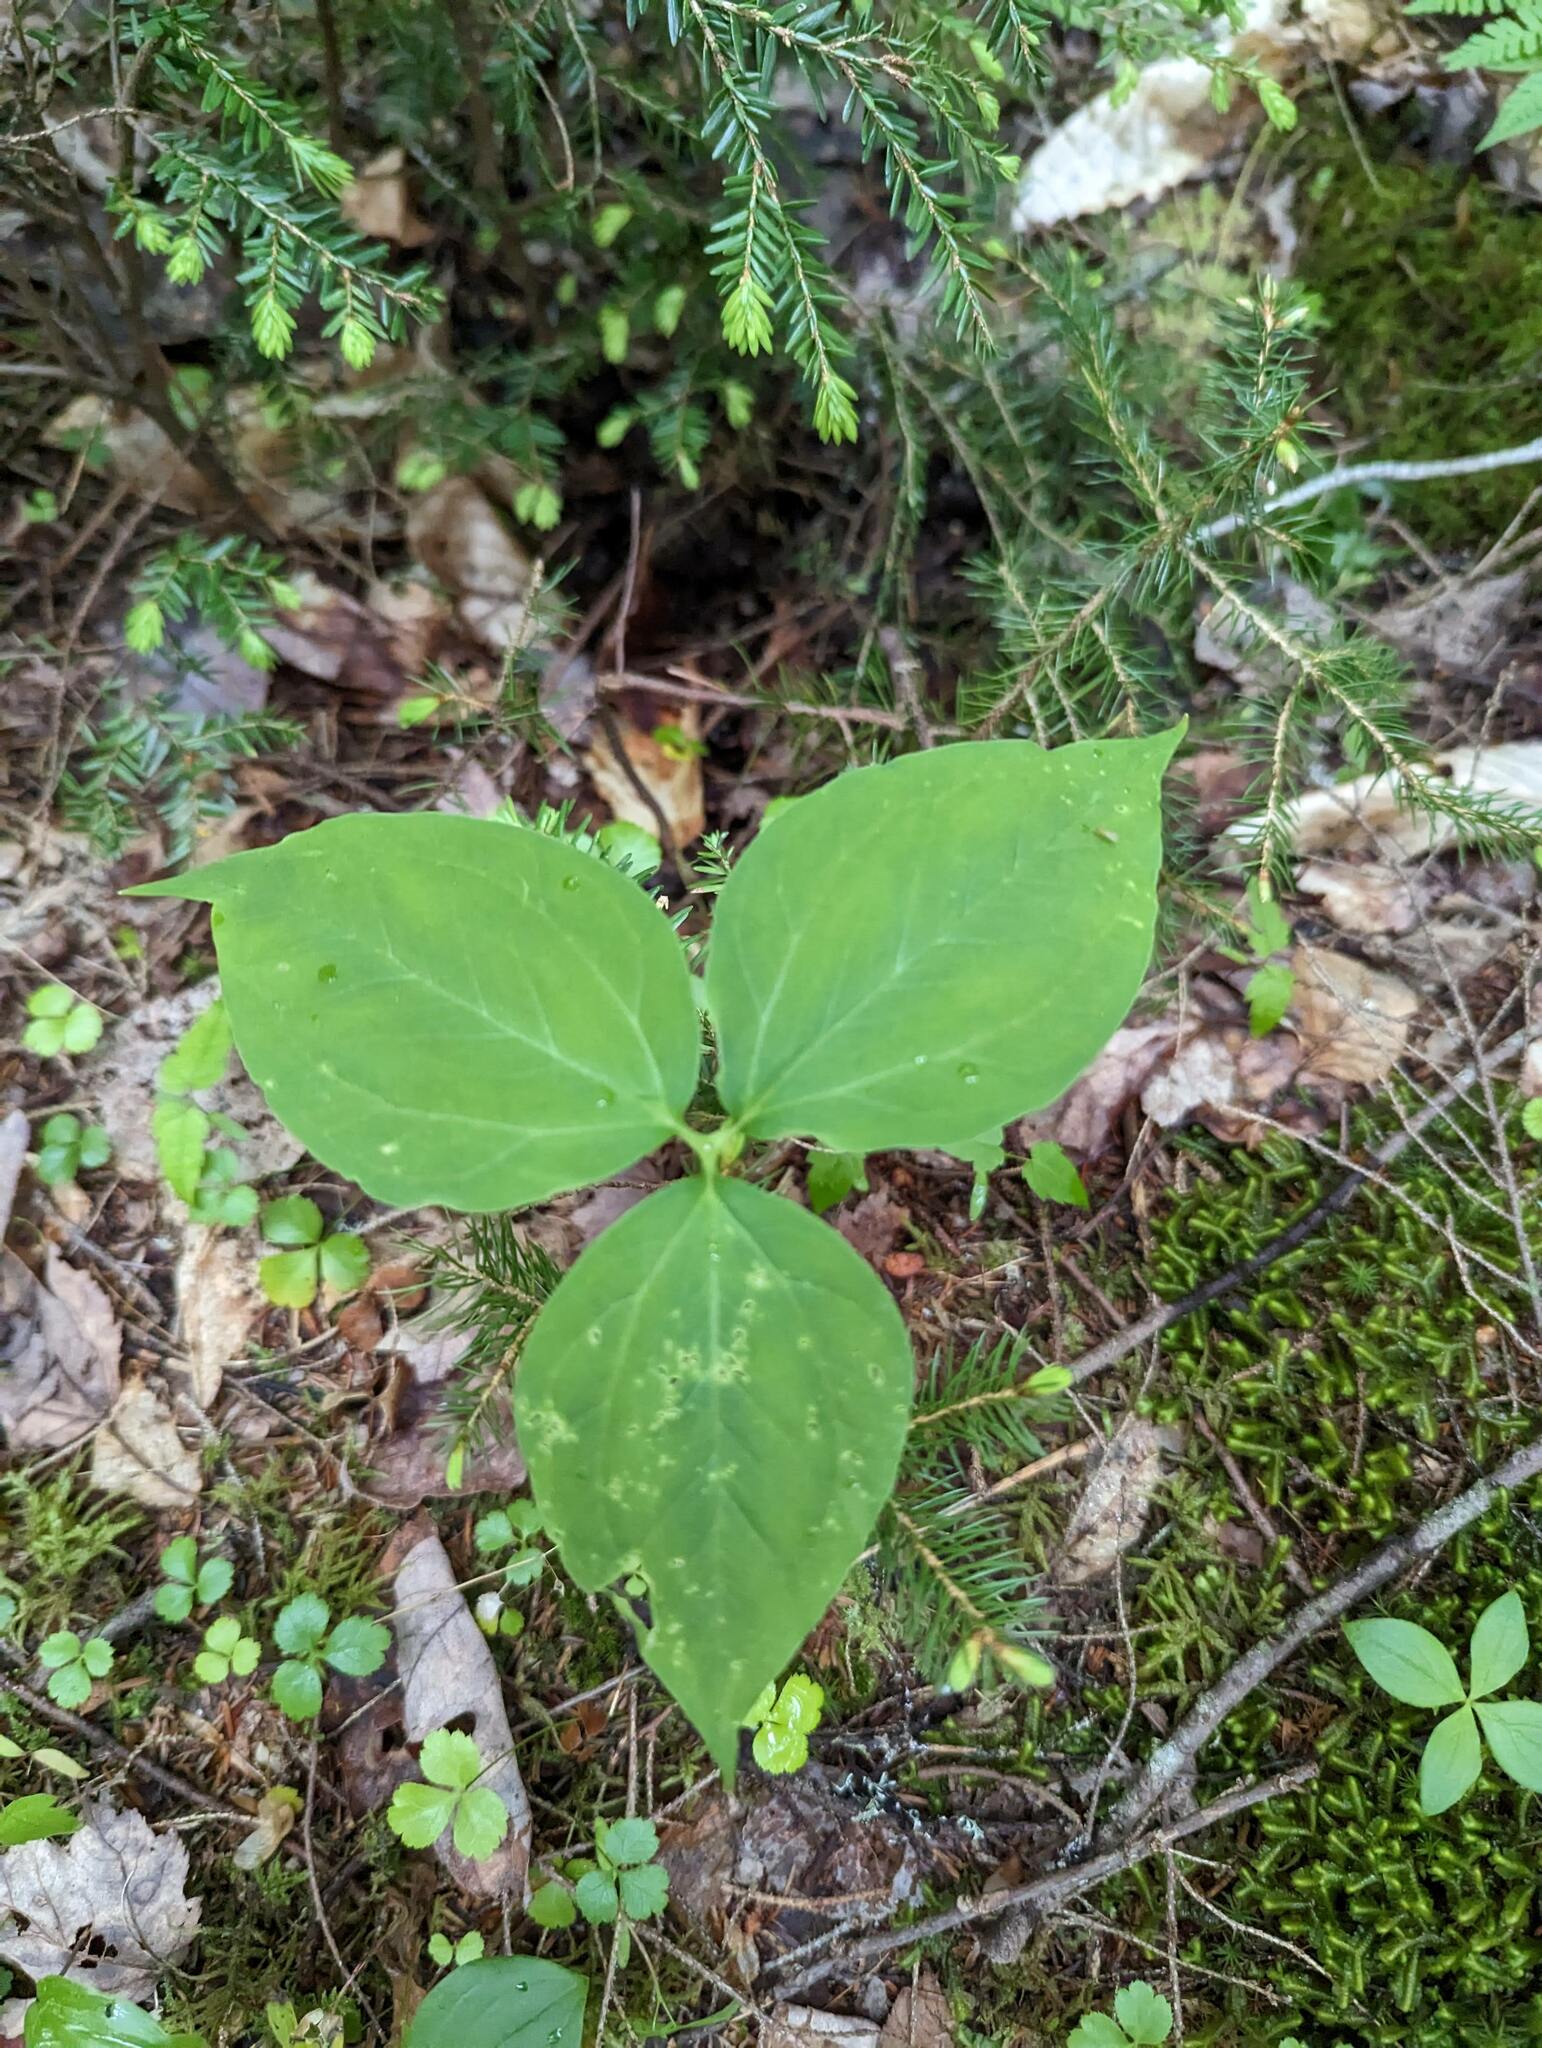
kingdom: Plantae
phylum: Tracheophyta
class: Liliopsida
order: Liliales
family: Melanthiaceae
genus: Trillium
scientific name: Trillium undulatum
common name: Paint trillium
